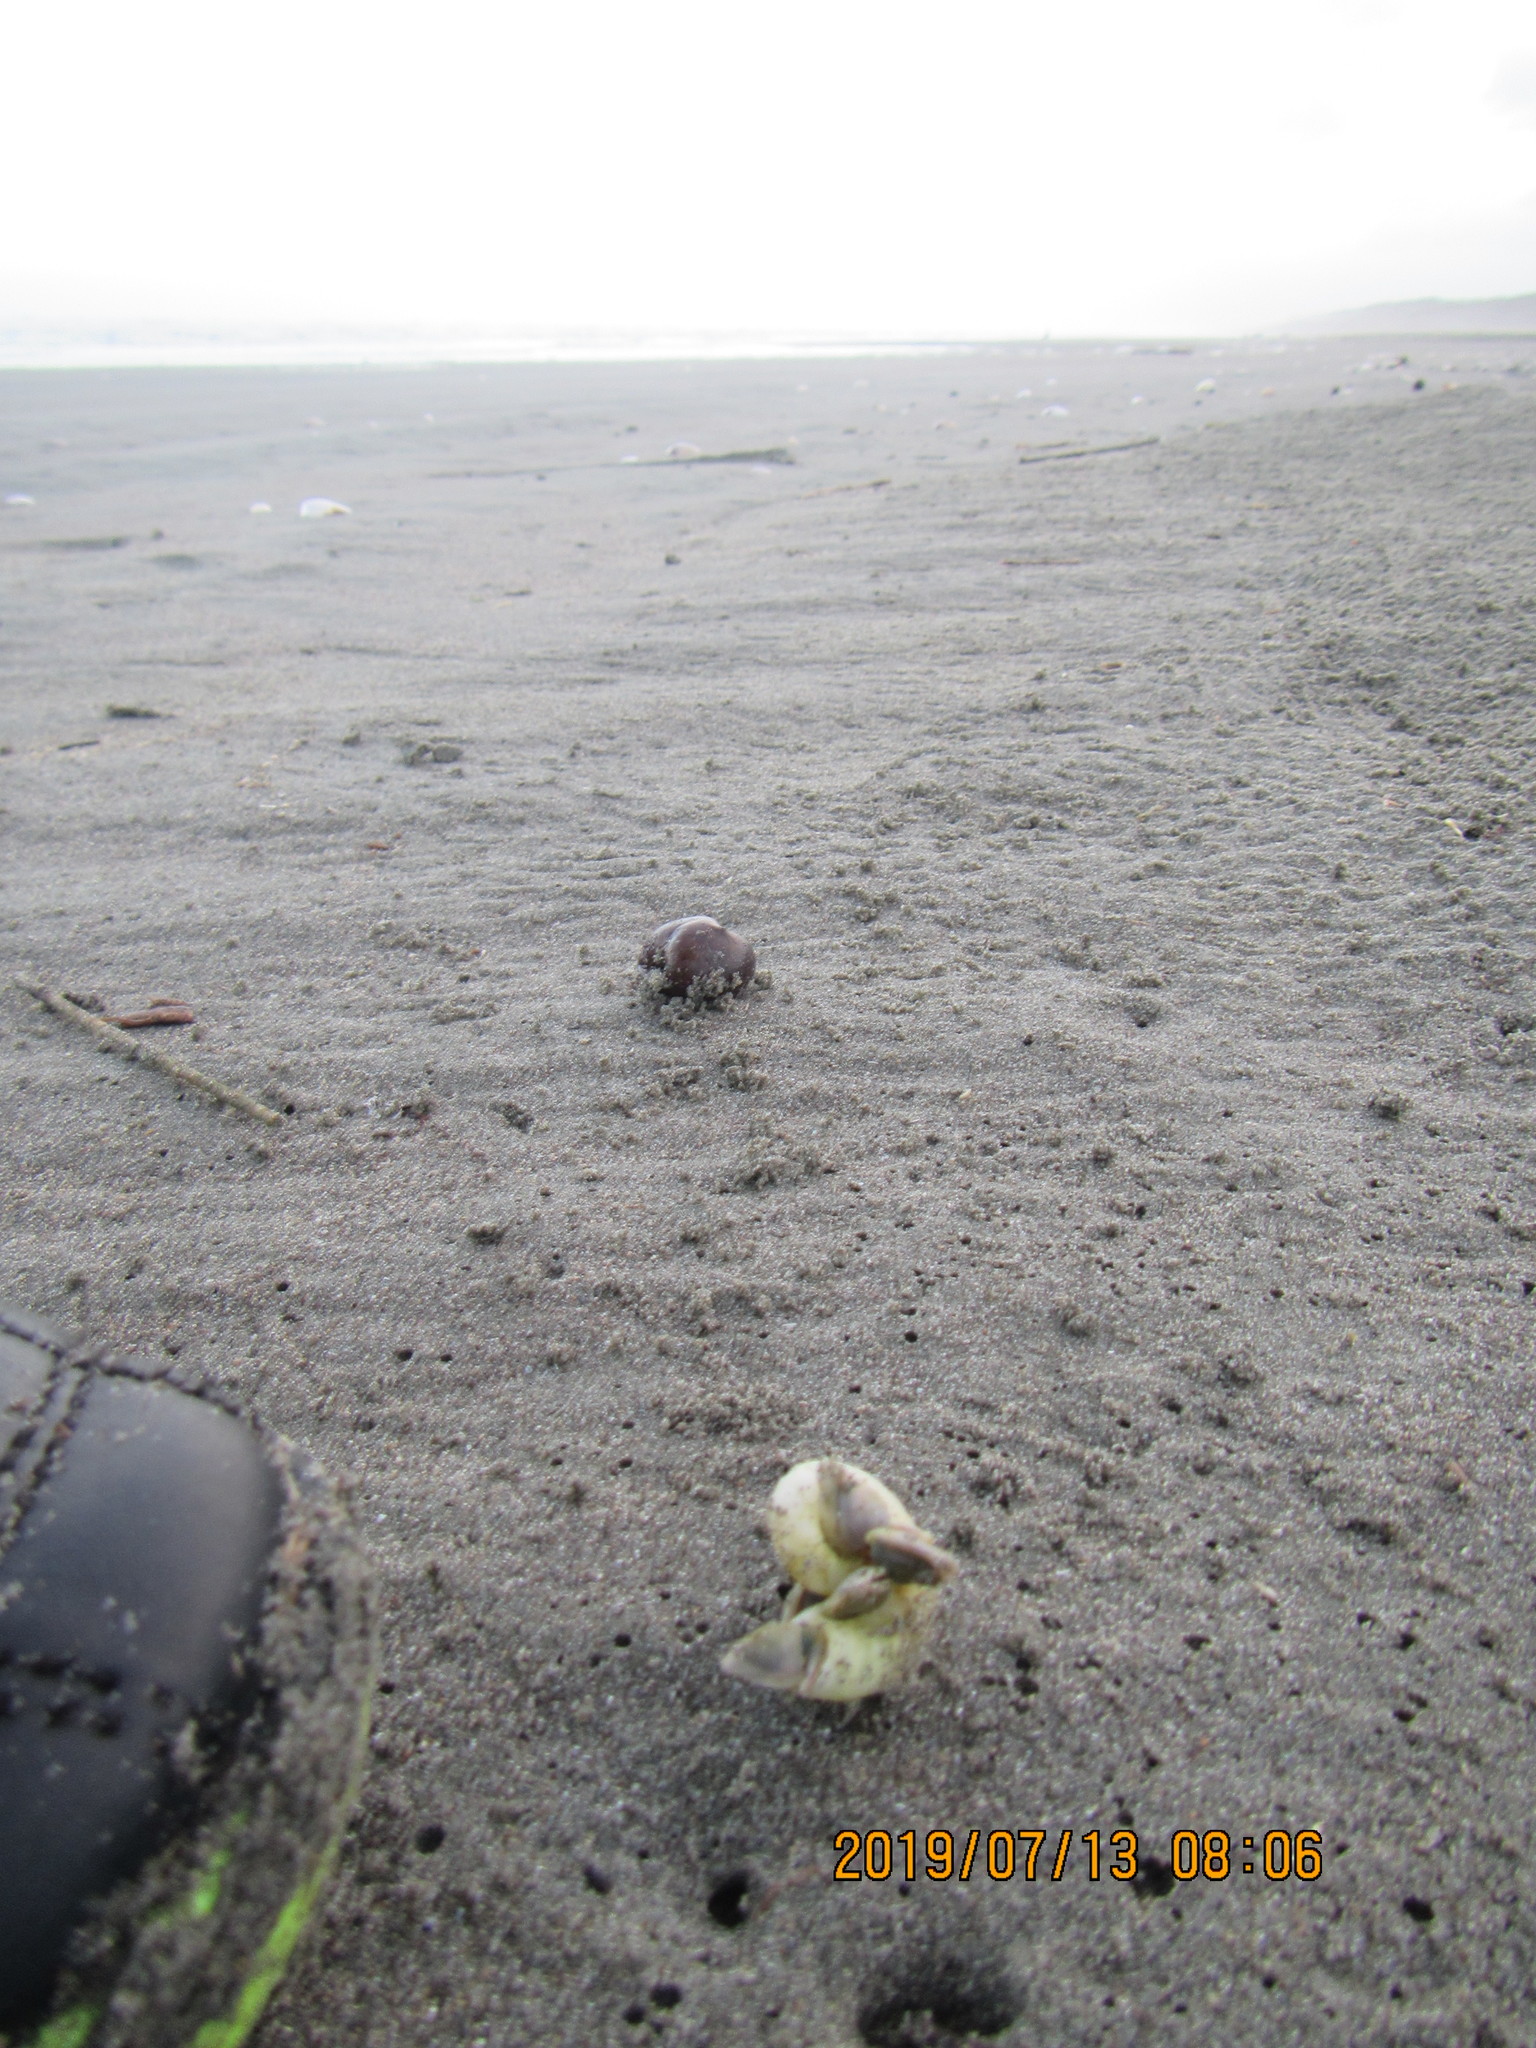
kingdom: Animalia
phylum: Mollusca
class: Cephalopoda
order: Spirulida
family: Spirulidae
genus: Spirula
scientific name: Spirula spirula
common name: Ram's horn squid
